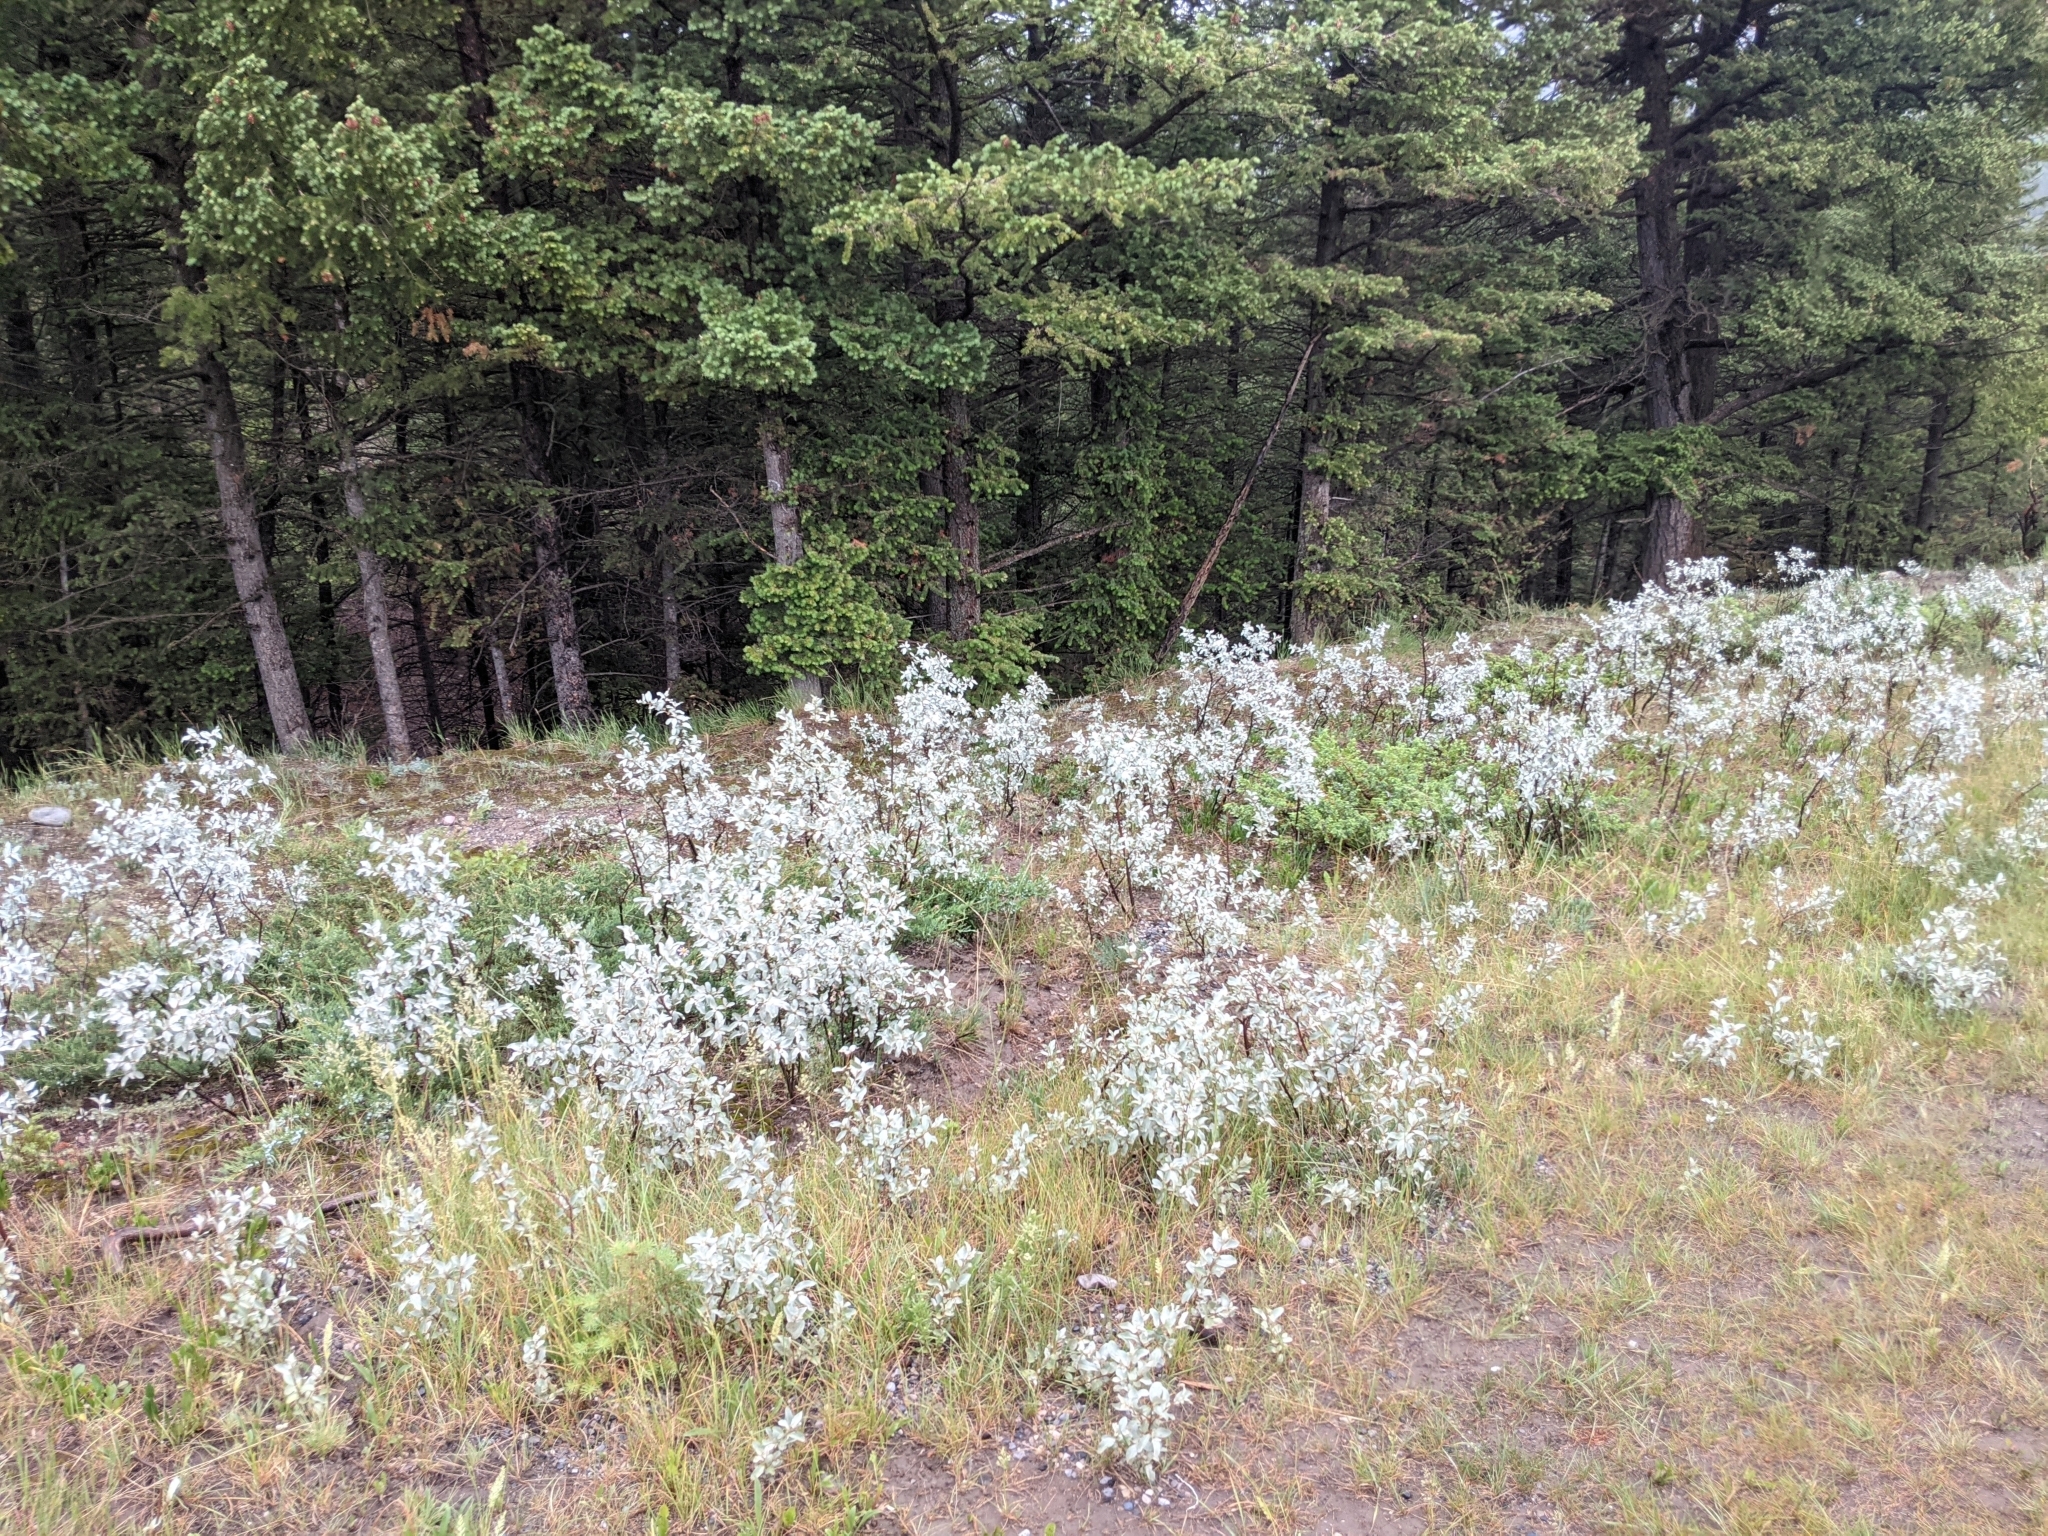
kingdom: Plantae
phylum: Tracheophyta
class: Magnoliopsida
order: Rosales
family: Elaeagnaceae
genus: Elaeagnus
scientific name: Elaeagnus commutata
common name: Silverberry
